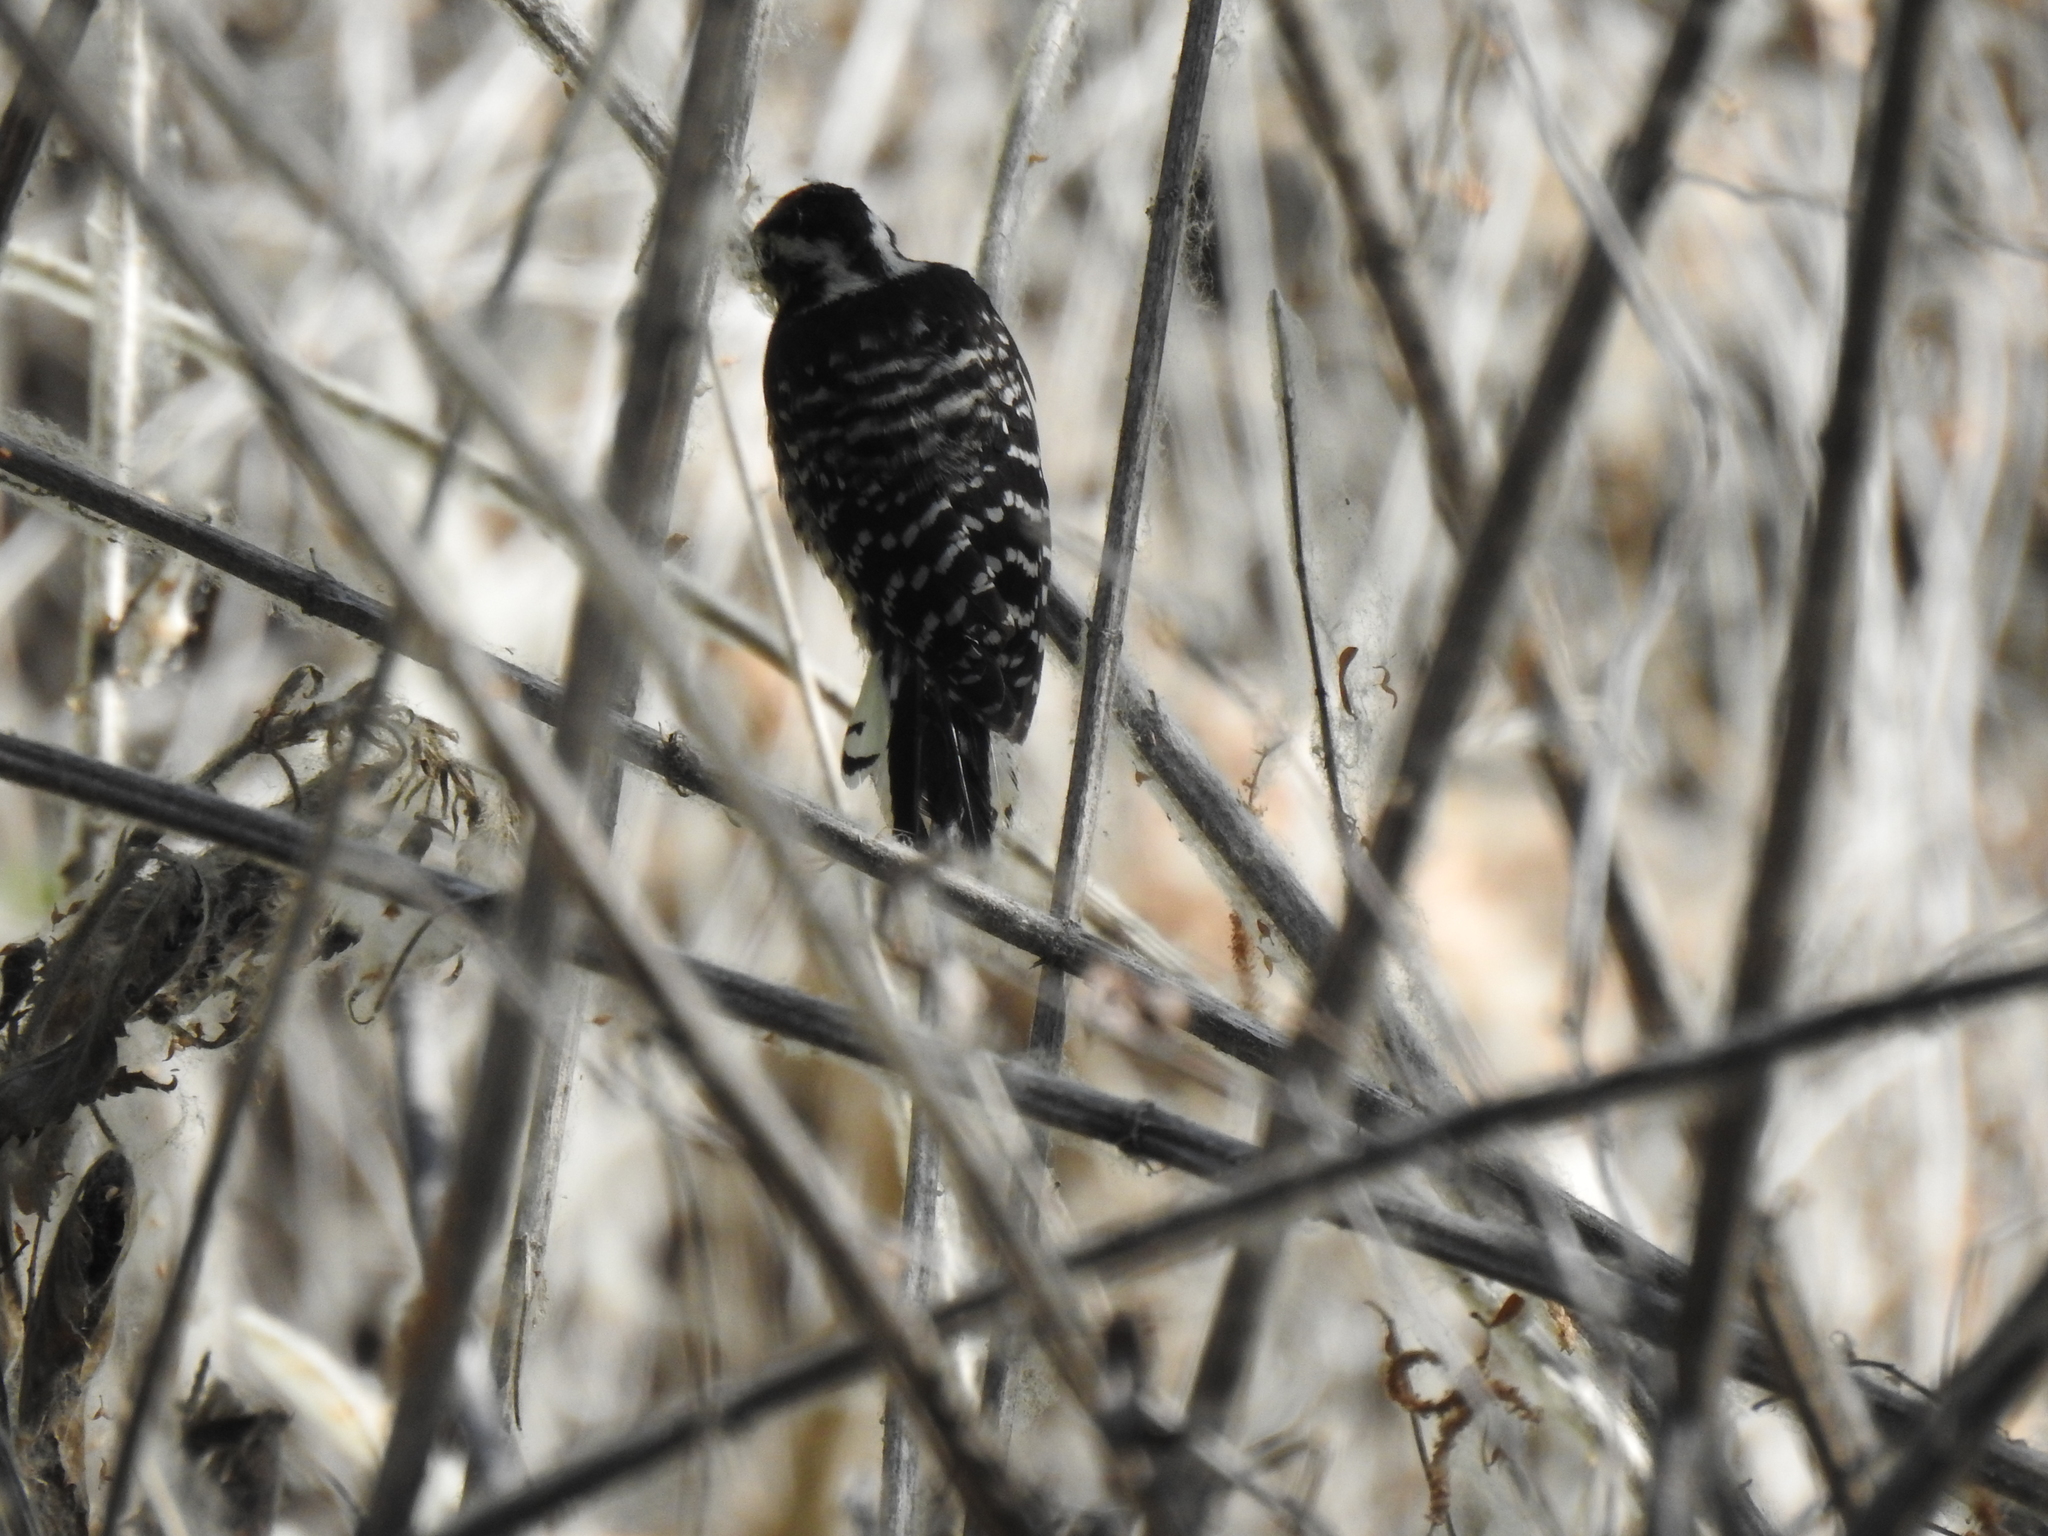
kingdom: Animalia
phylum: Chordata
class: Aves
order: Piciformes
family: Picidae
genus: Dryobates
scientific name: Dryobates nuttallii
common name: Nuttall's woodpecker
